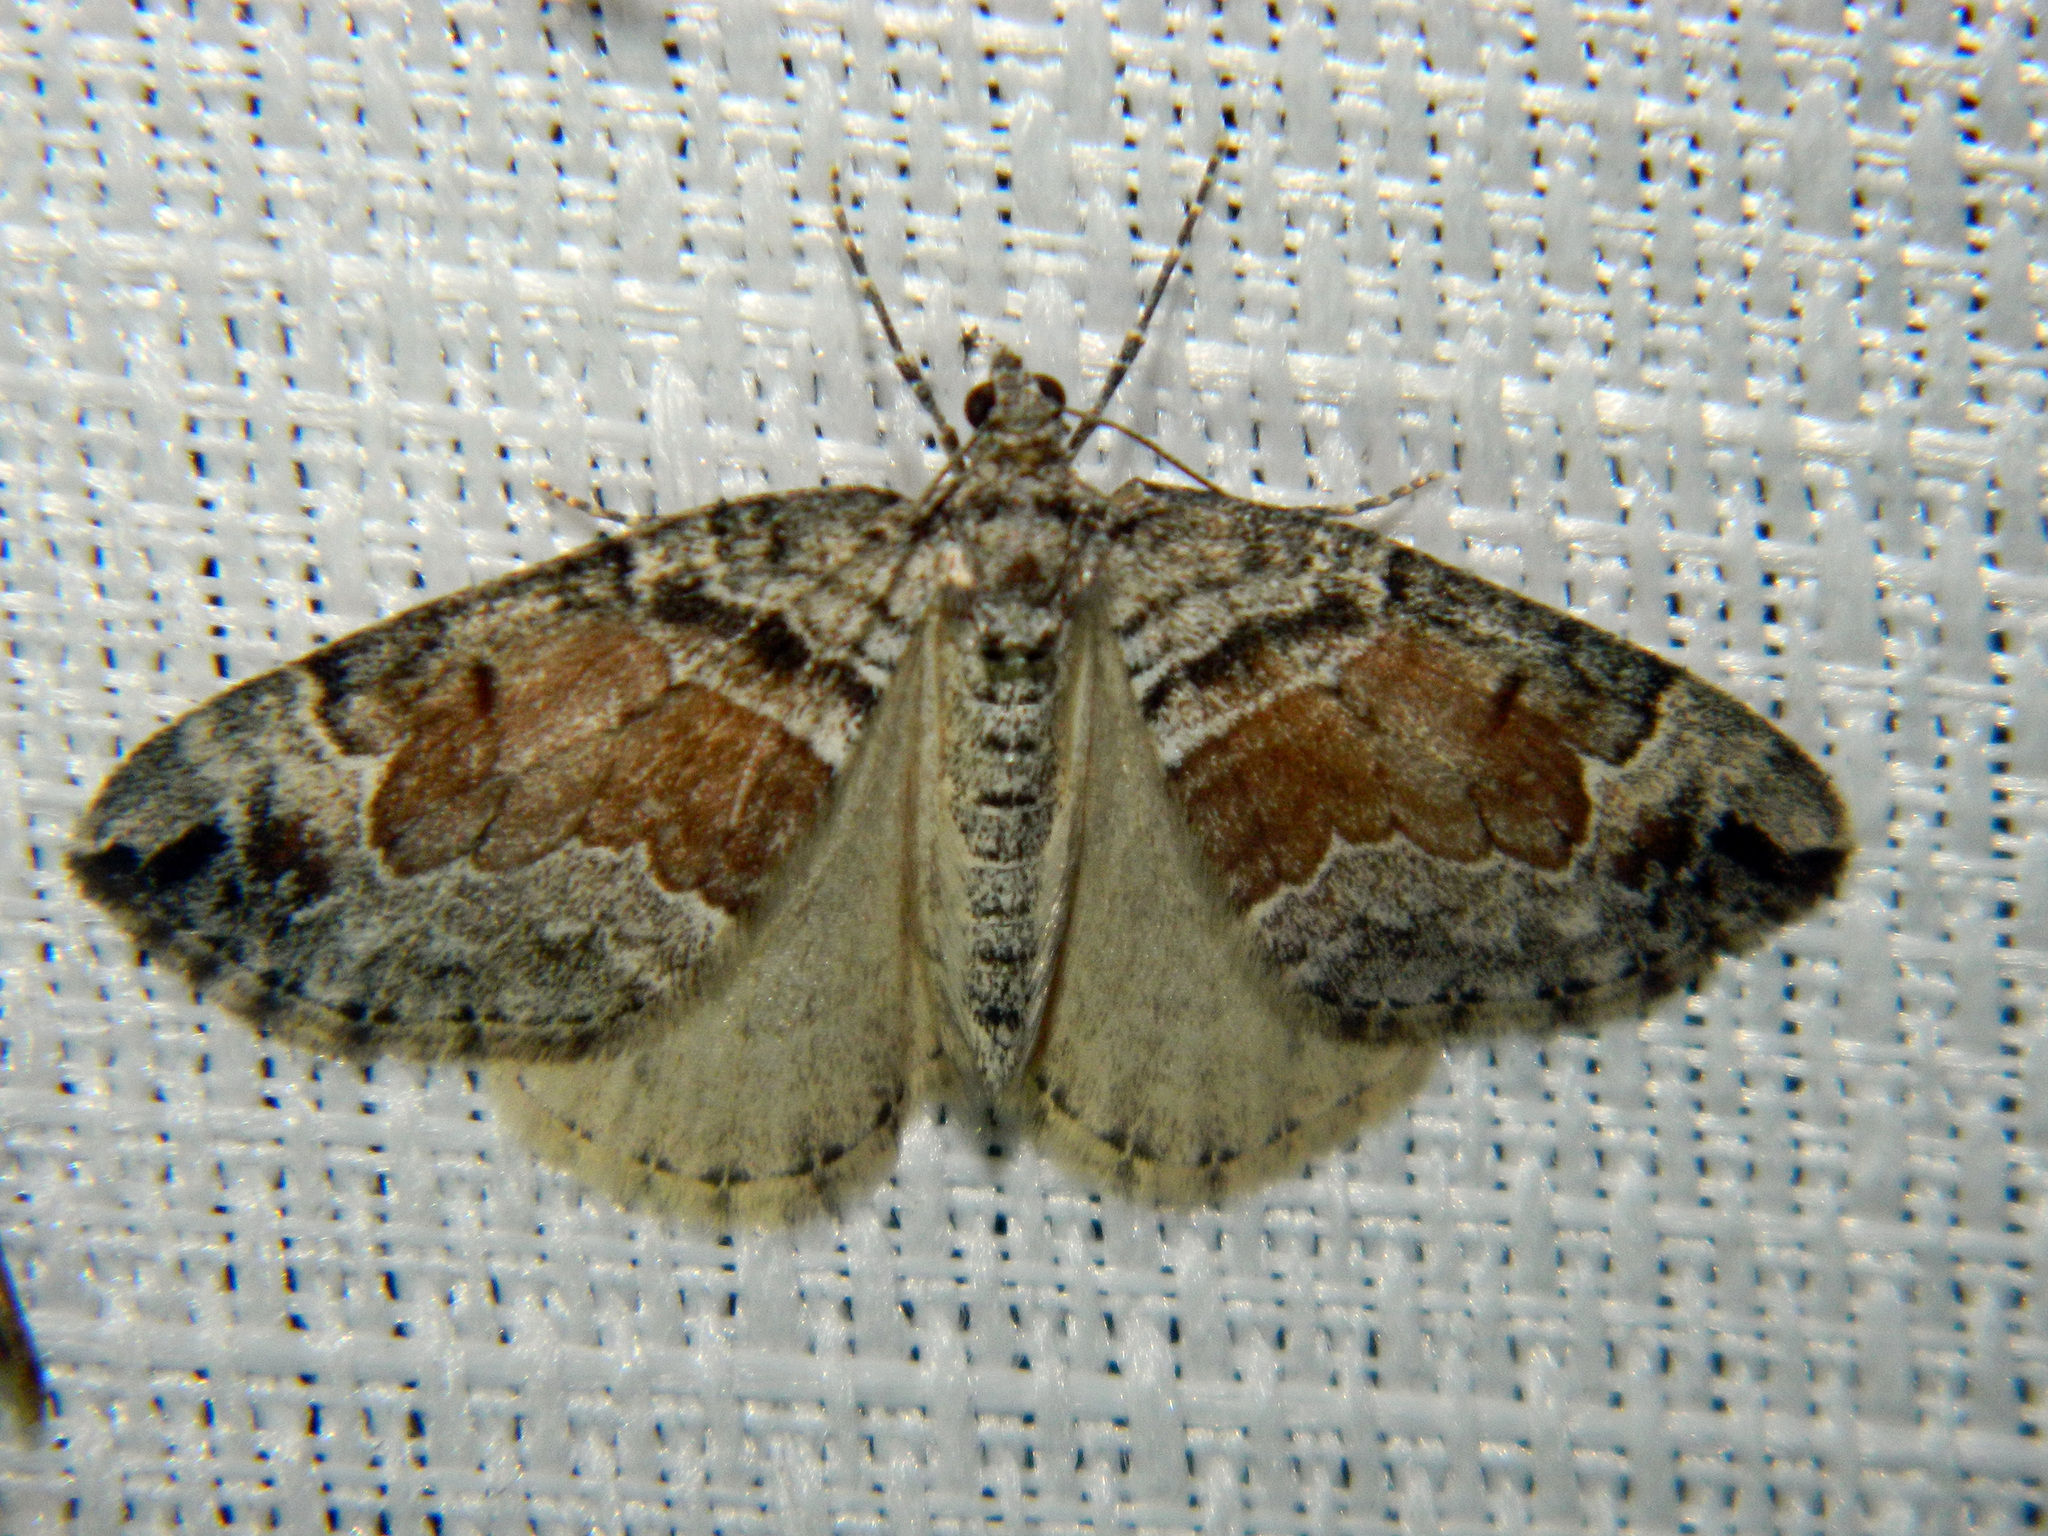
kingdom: Animalia
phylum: Arthropoda
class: Insecta
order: Lepidoptera
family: Geometridae
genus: Dysstroma
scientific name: Dysstroma hersiliata
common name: Orange-barred carpet
